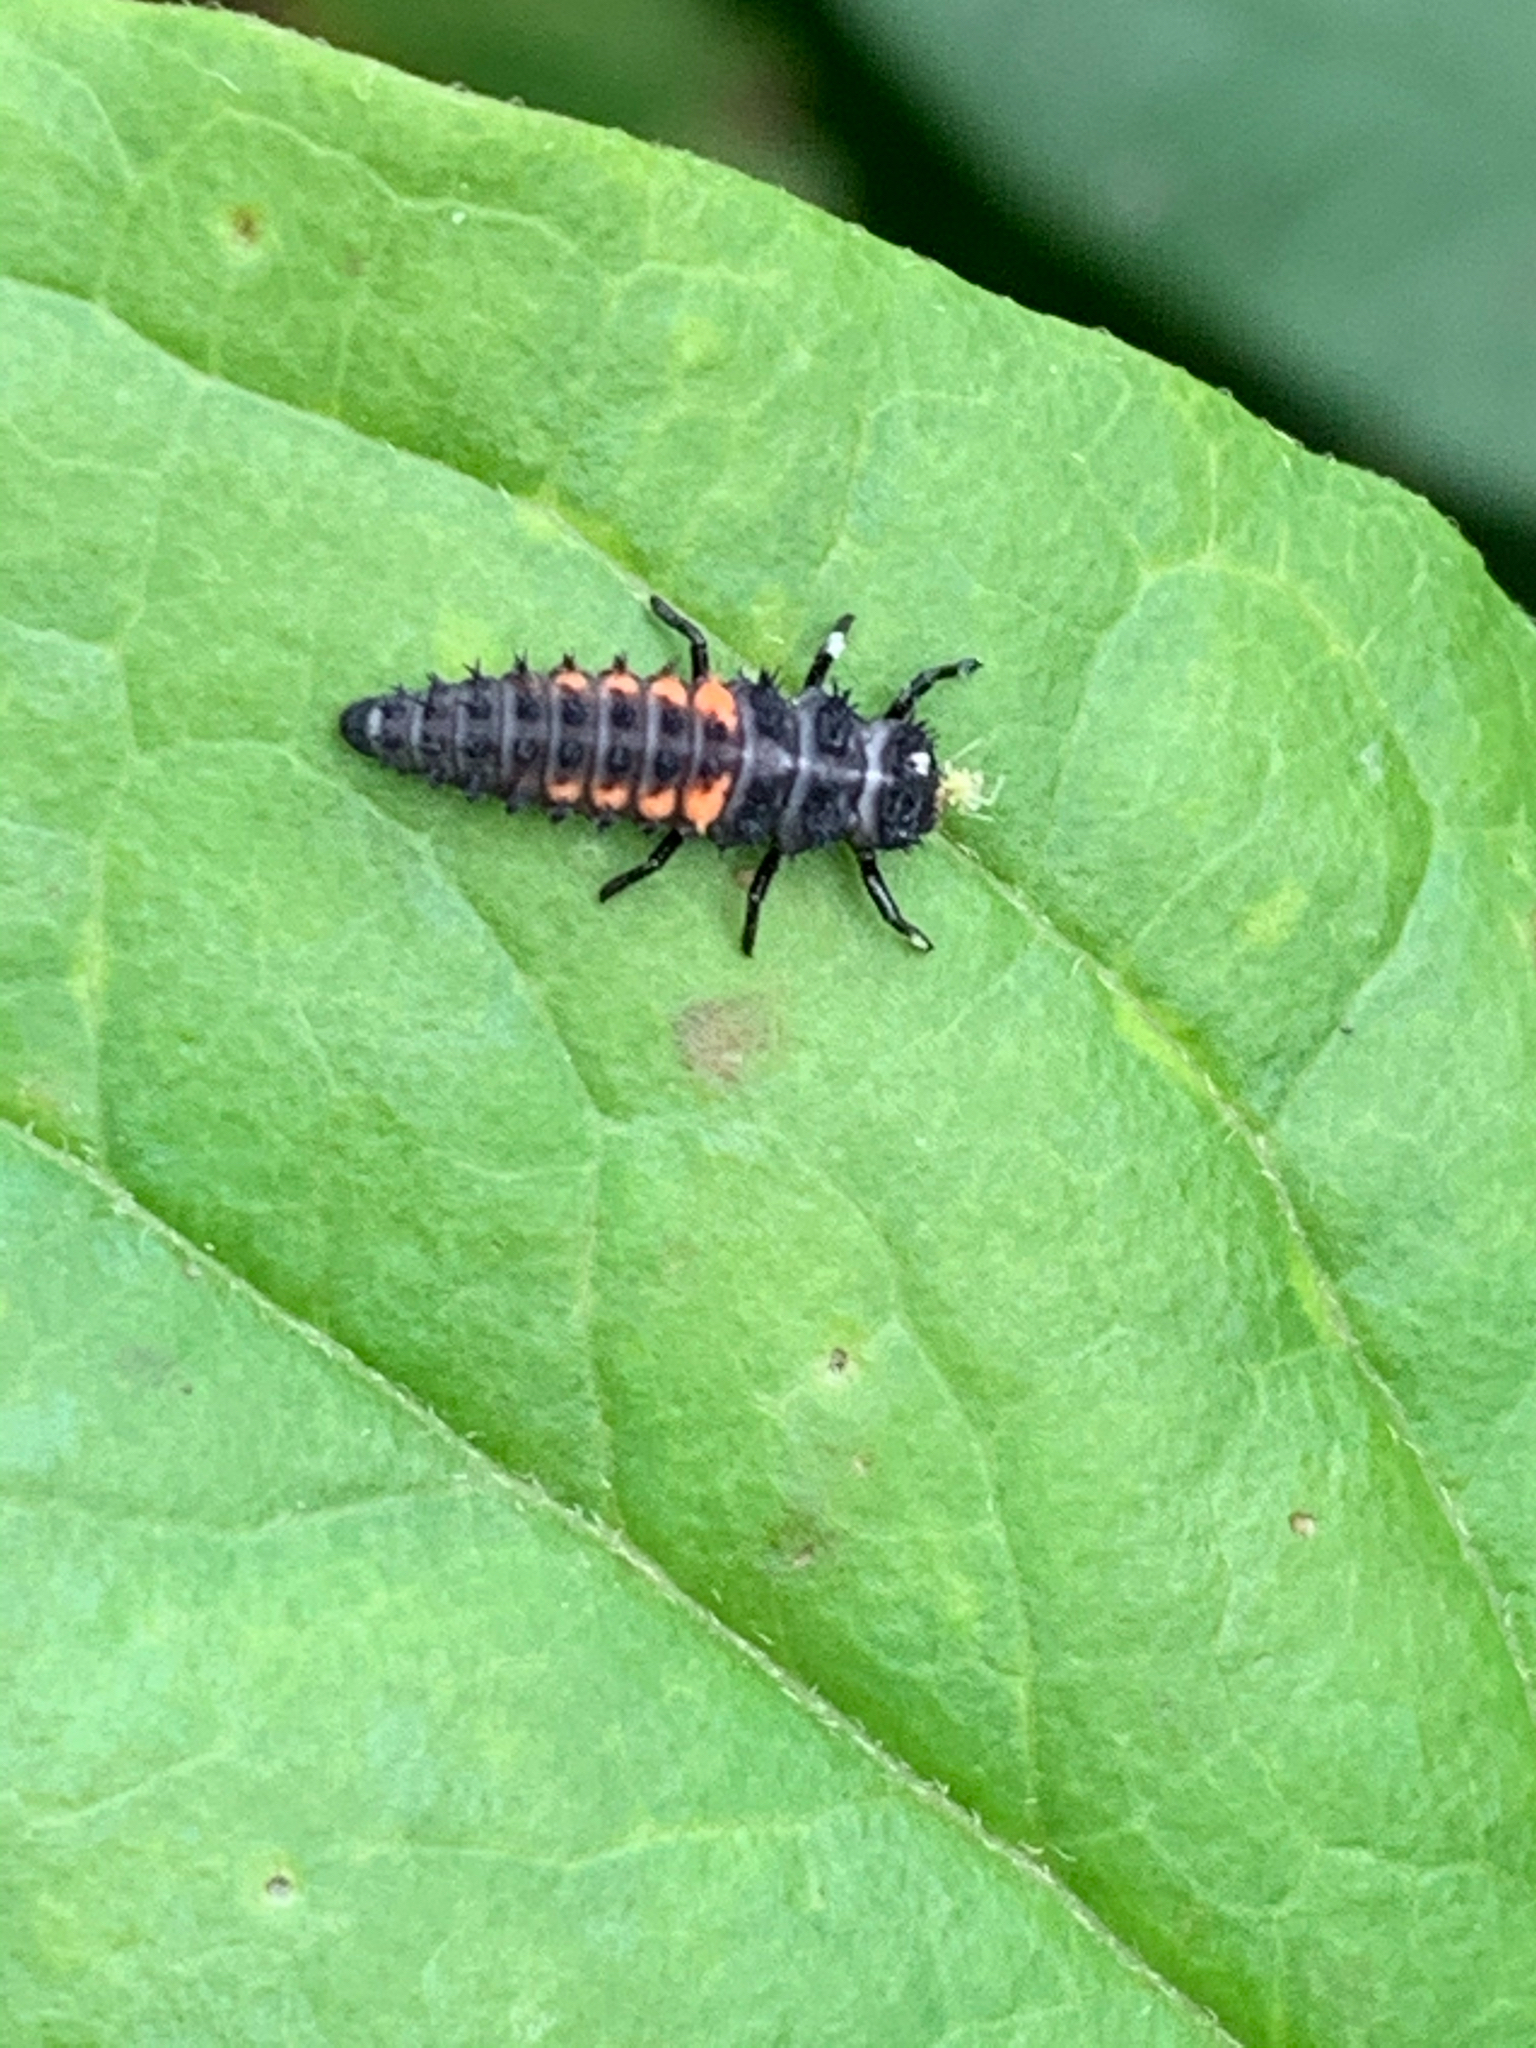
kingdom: Animalia
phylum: Arthropoda
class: Insecta
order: Coleoptera
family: Coccinellidae
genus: Harmonia
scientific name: Harmonia axyridis
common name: Harlequin ladybird
